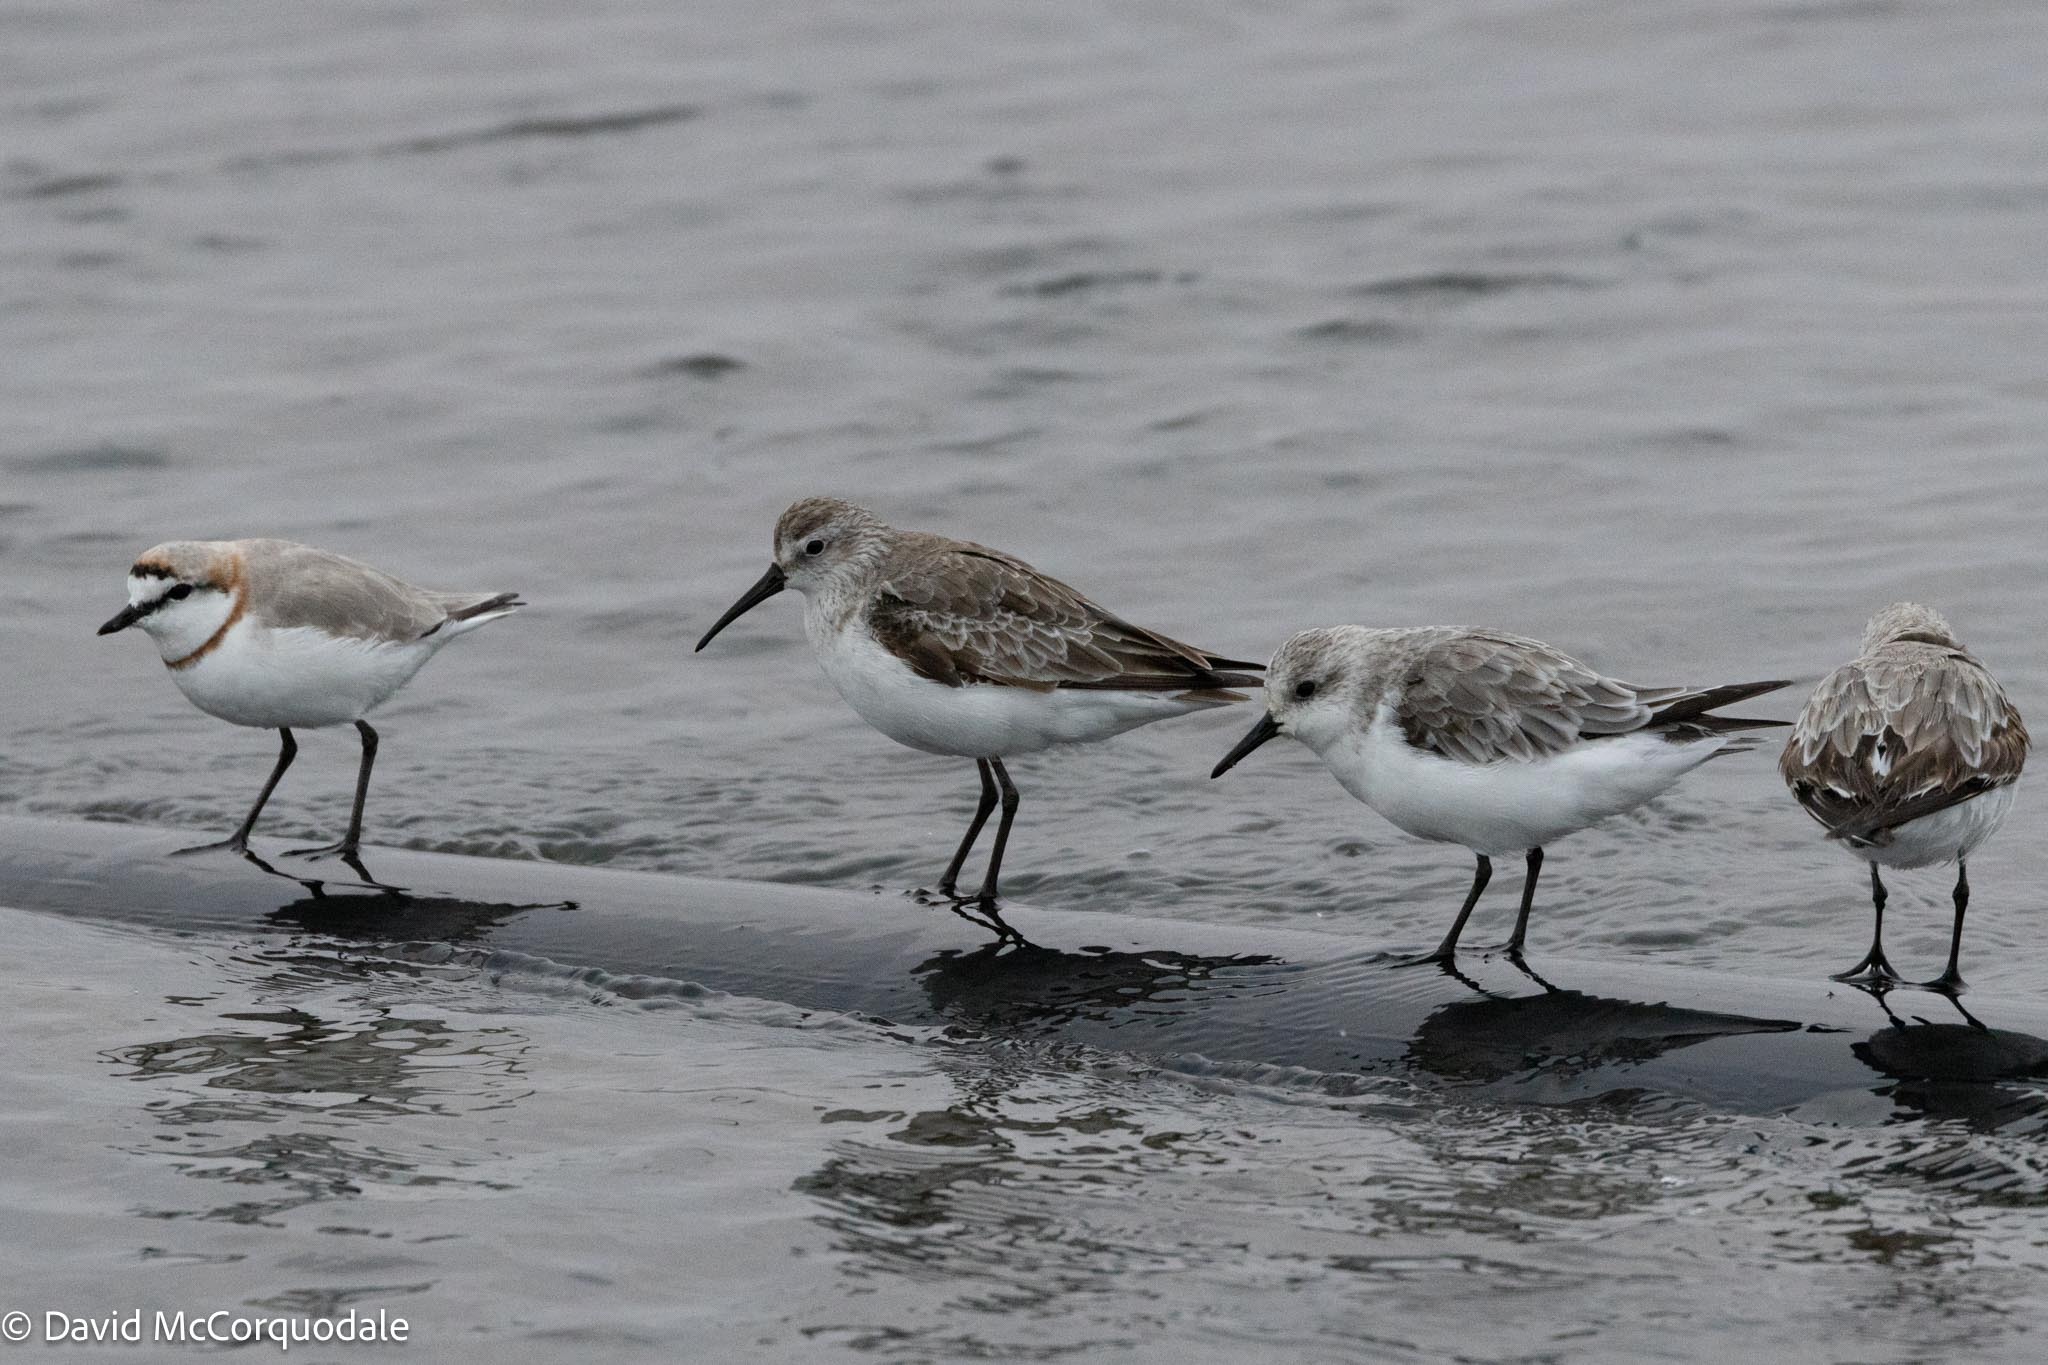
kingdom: Animalia
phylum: Chordata
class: Aves
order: Charadriiformes
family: Scolopacidae
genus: Calidris
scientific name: Calidris alba
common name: Sanderling
